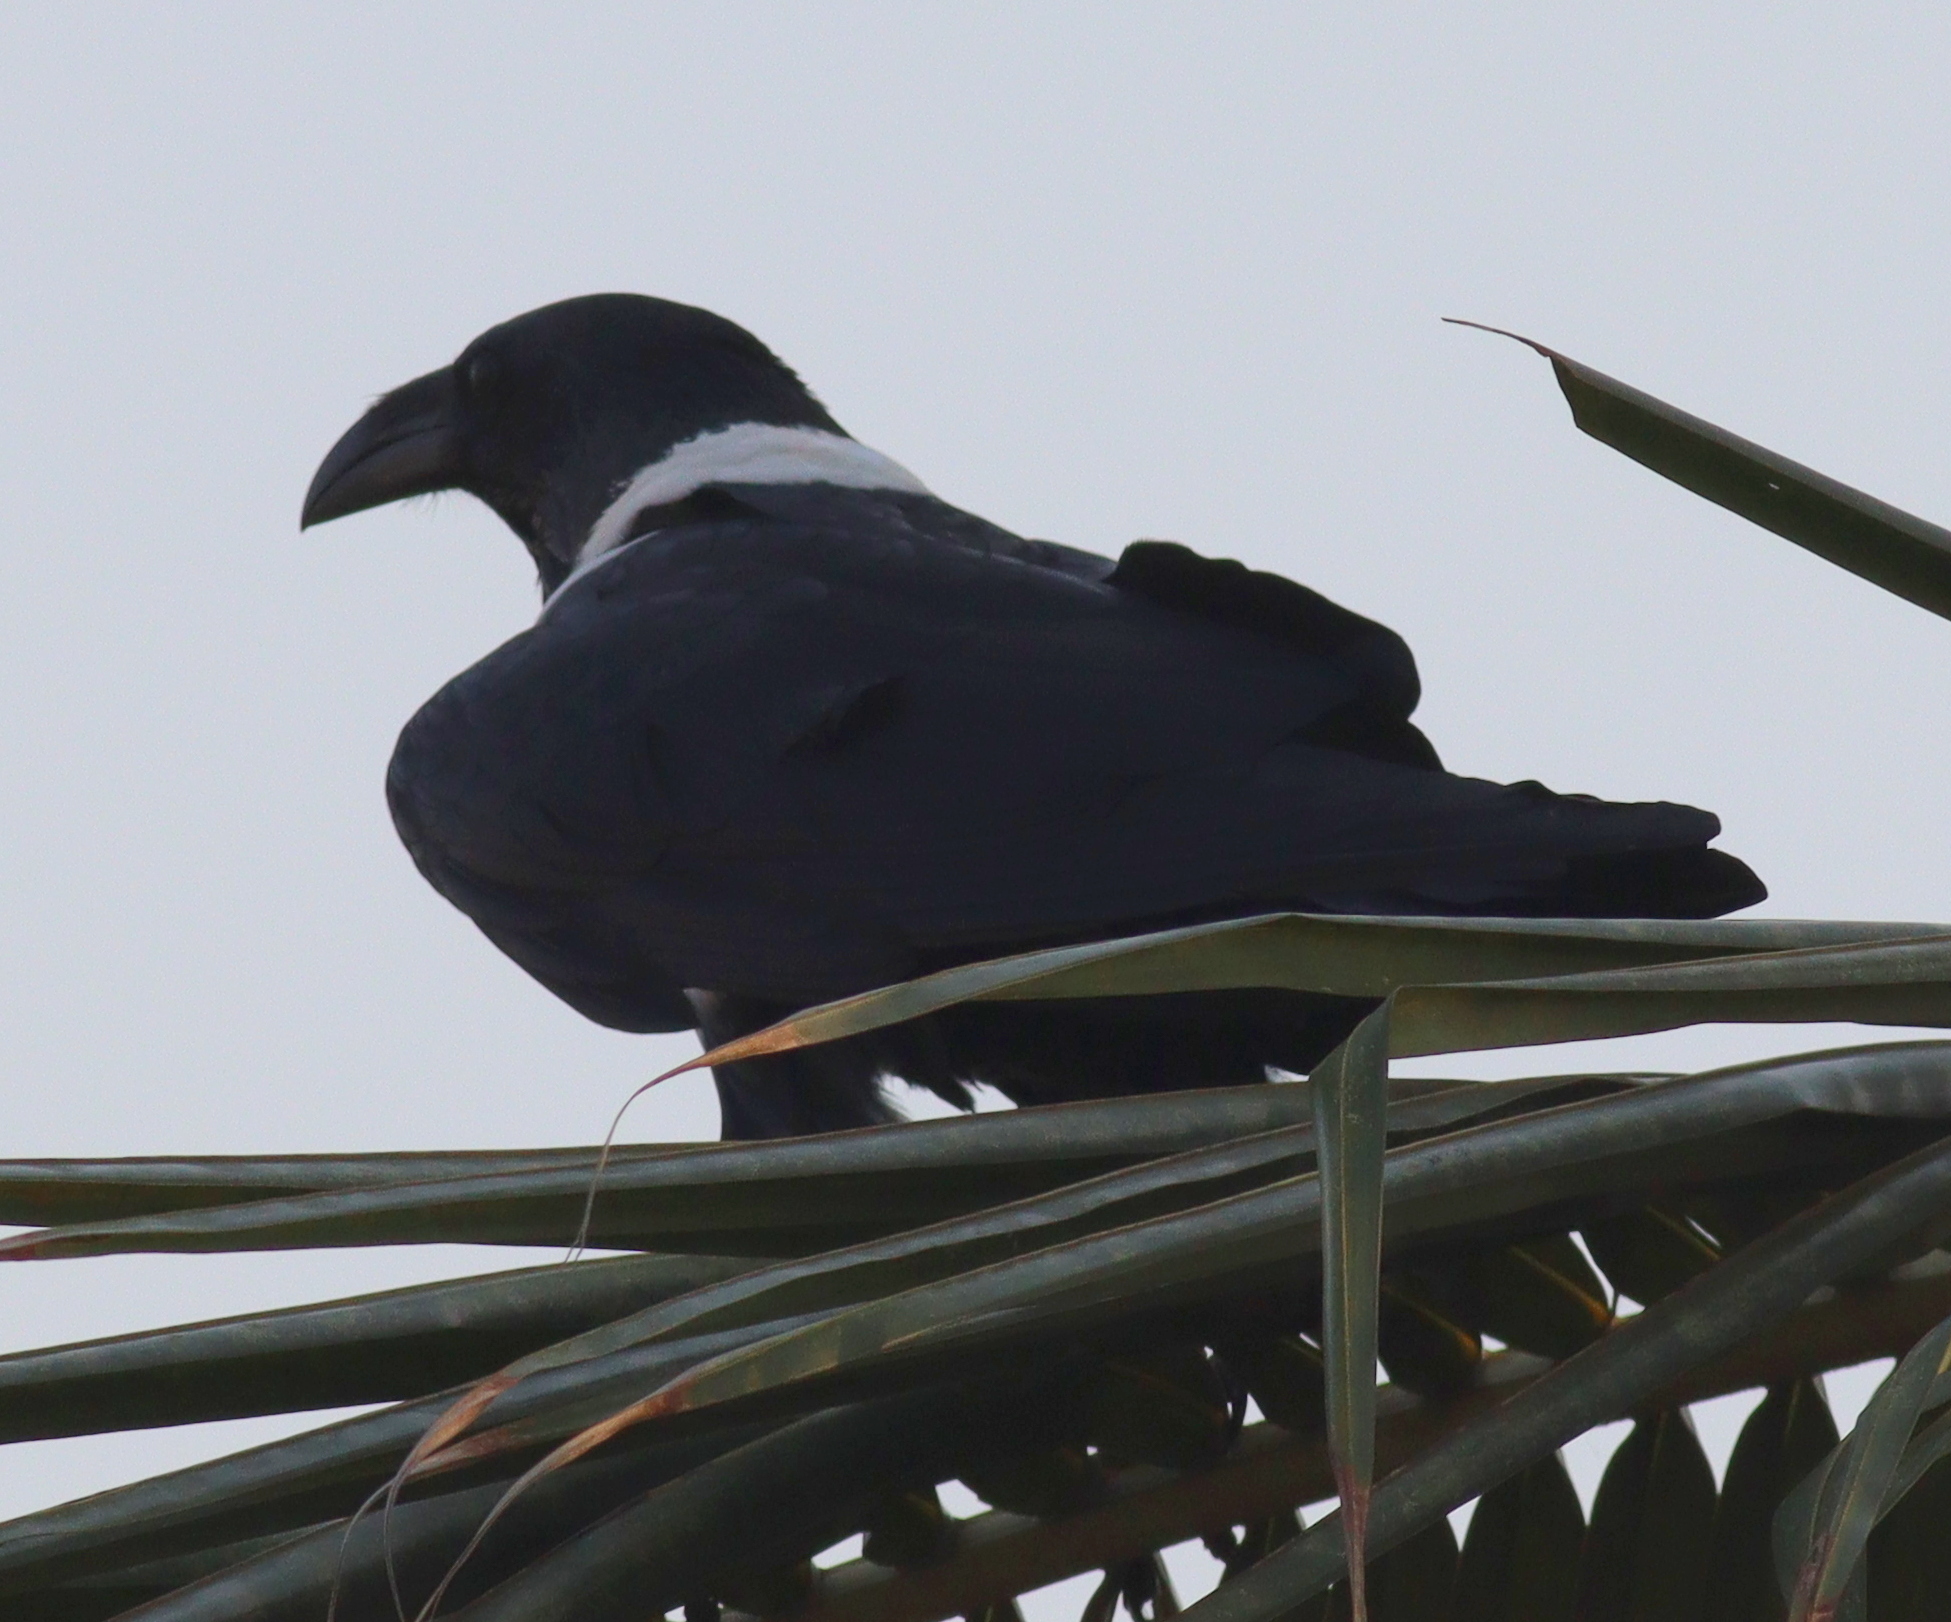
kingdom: Animalia
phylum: Chordata
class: Aves
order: Passeriformes
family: Corvidae
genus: Corvus
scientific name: Corvus albus
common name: Pied crow
